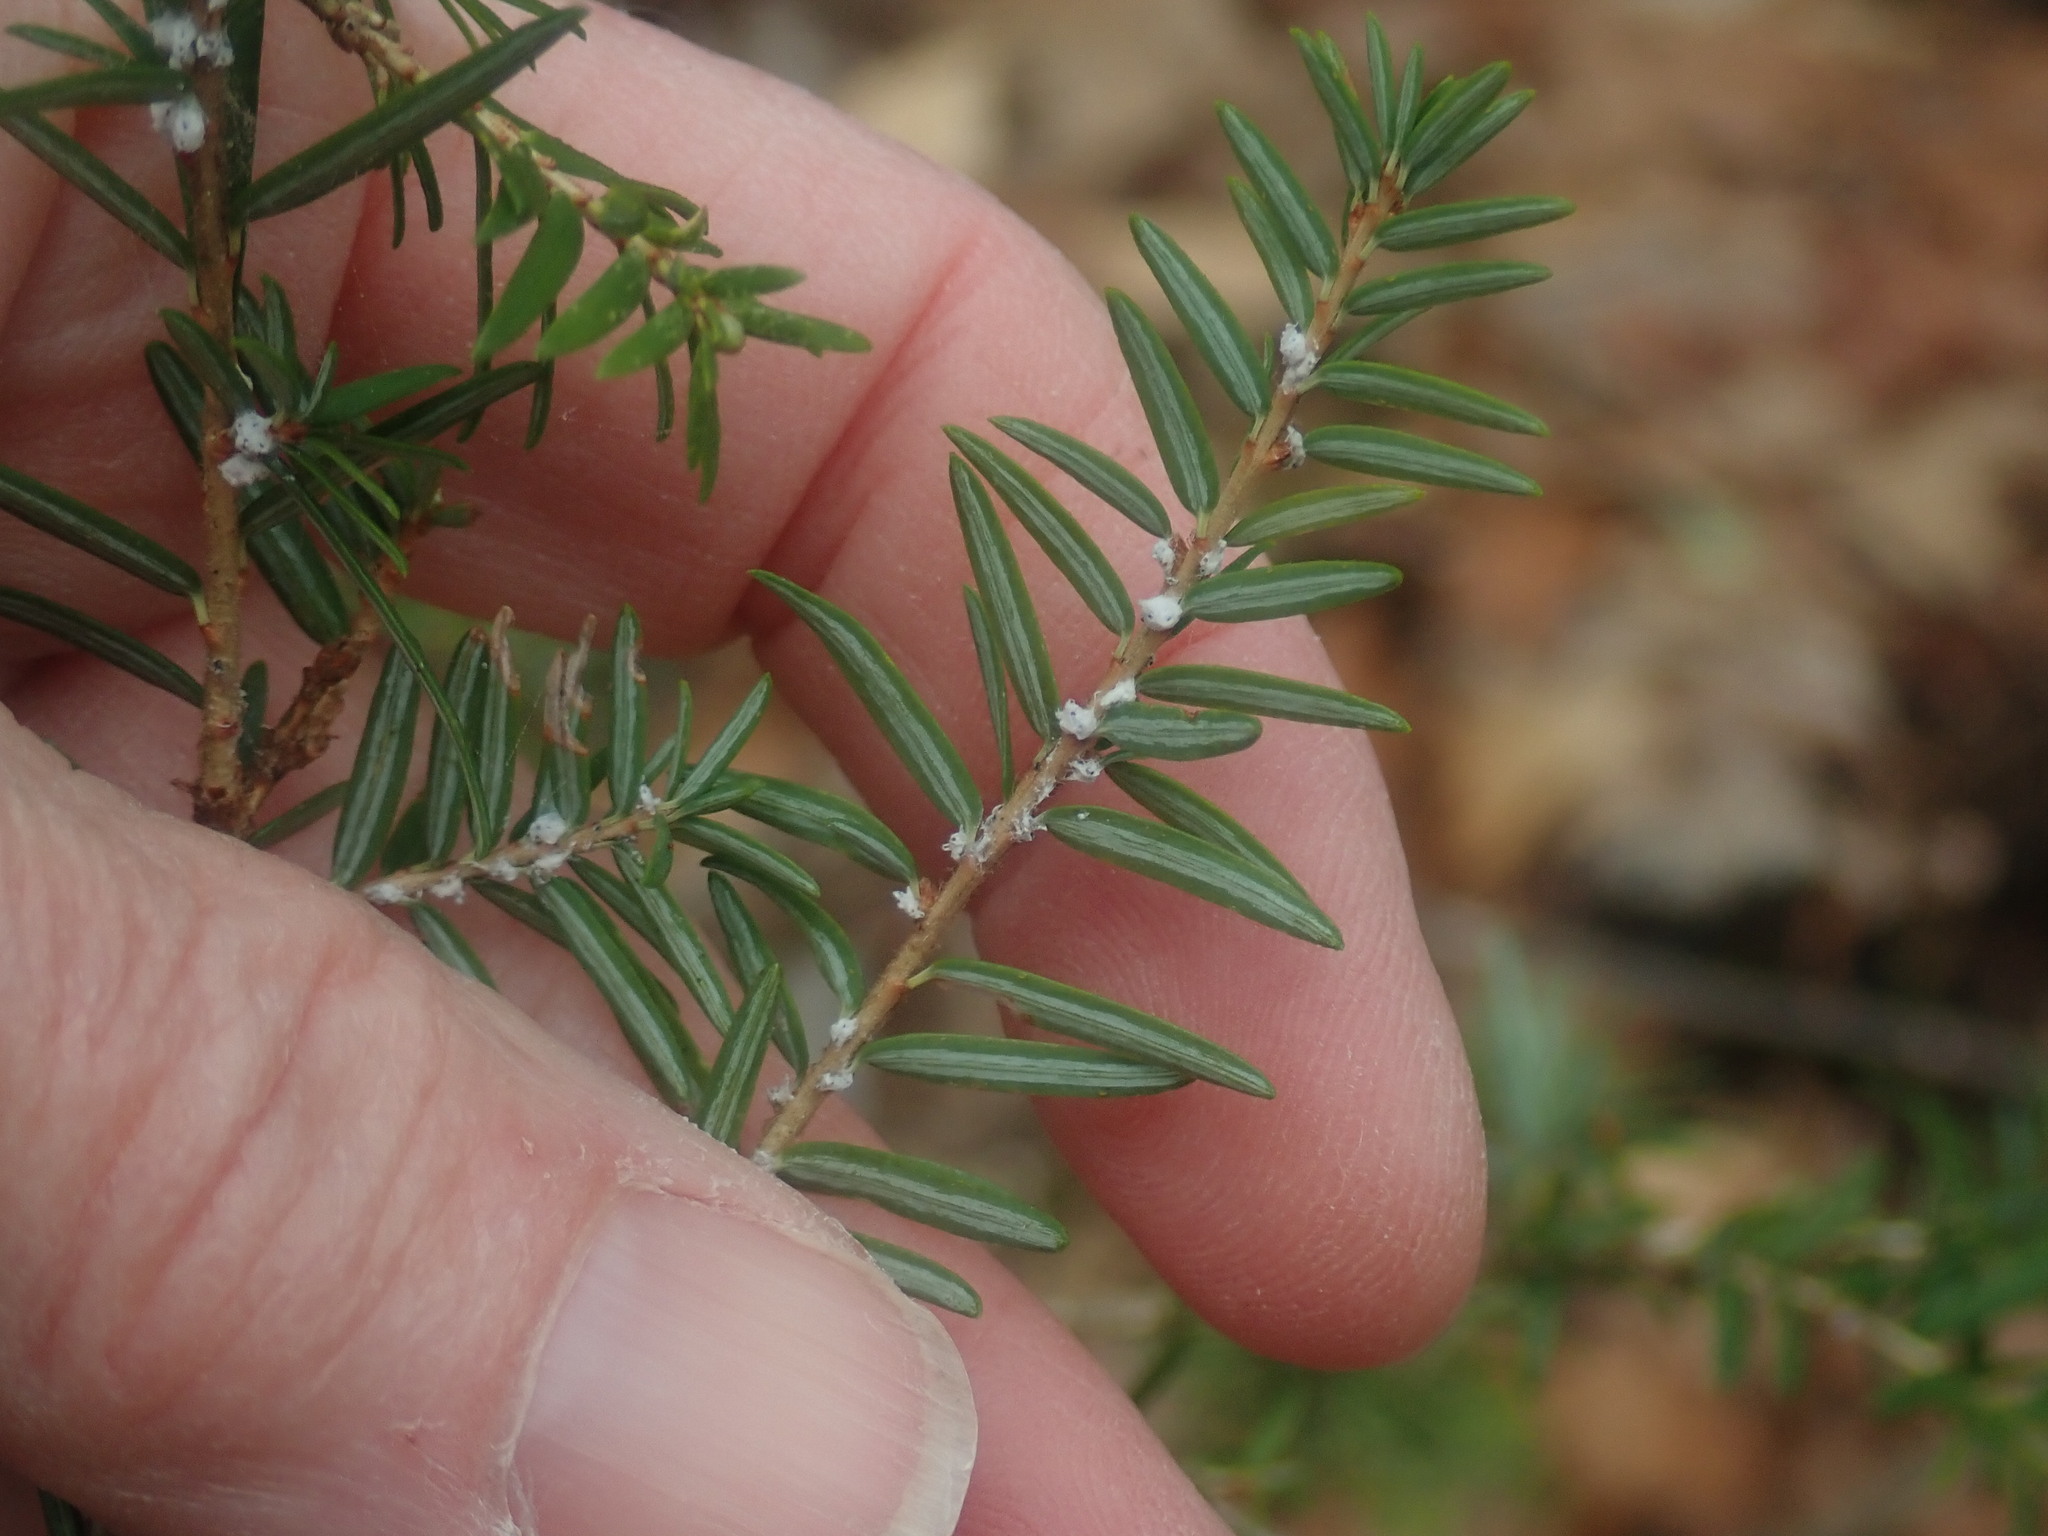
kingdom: Animalia
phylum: Arthropoda
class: Insecta
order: Hemiptera
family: Adelgidae
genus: Adelges
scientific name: Adelges tsugae
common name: Hemlock woolly adelgid
